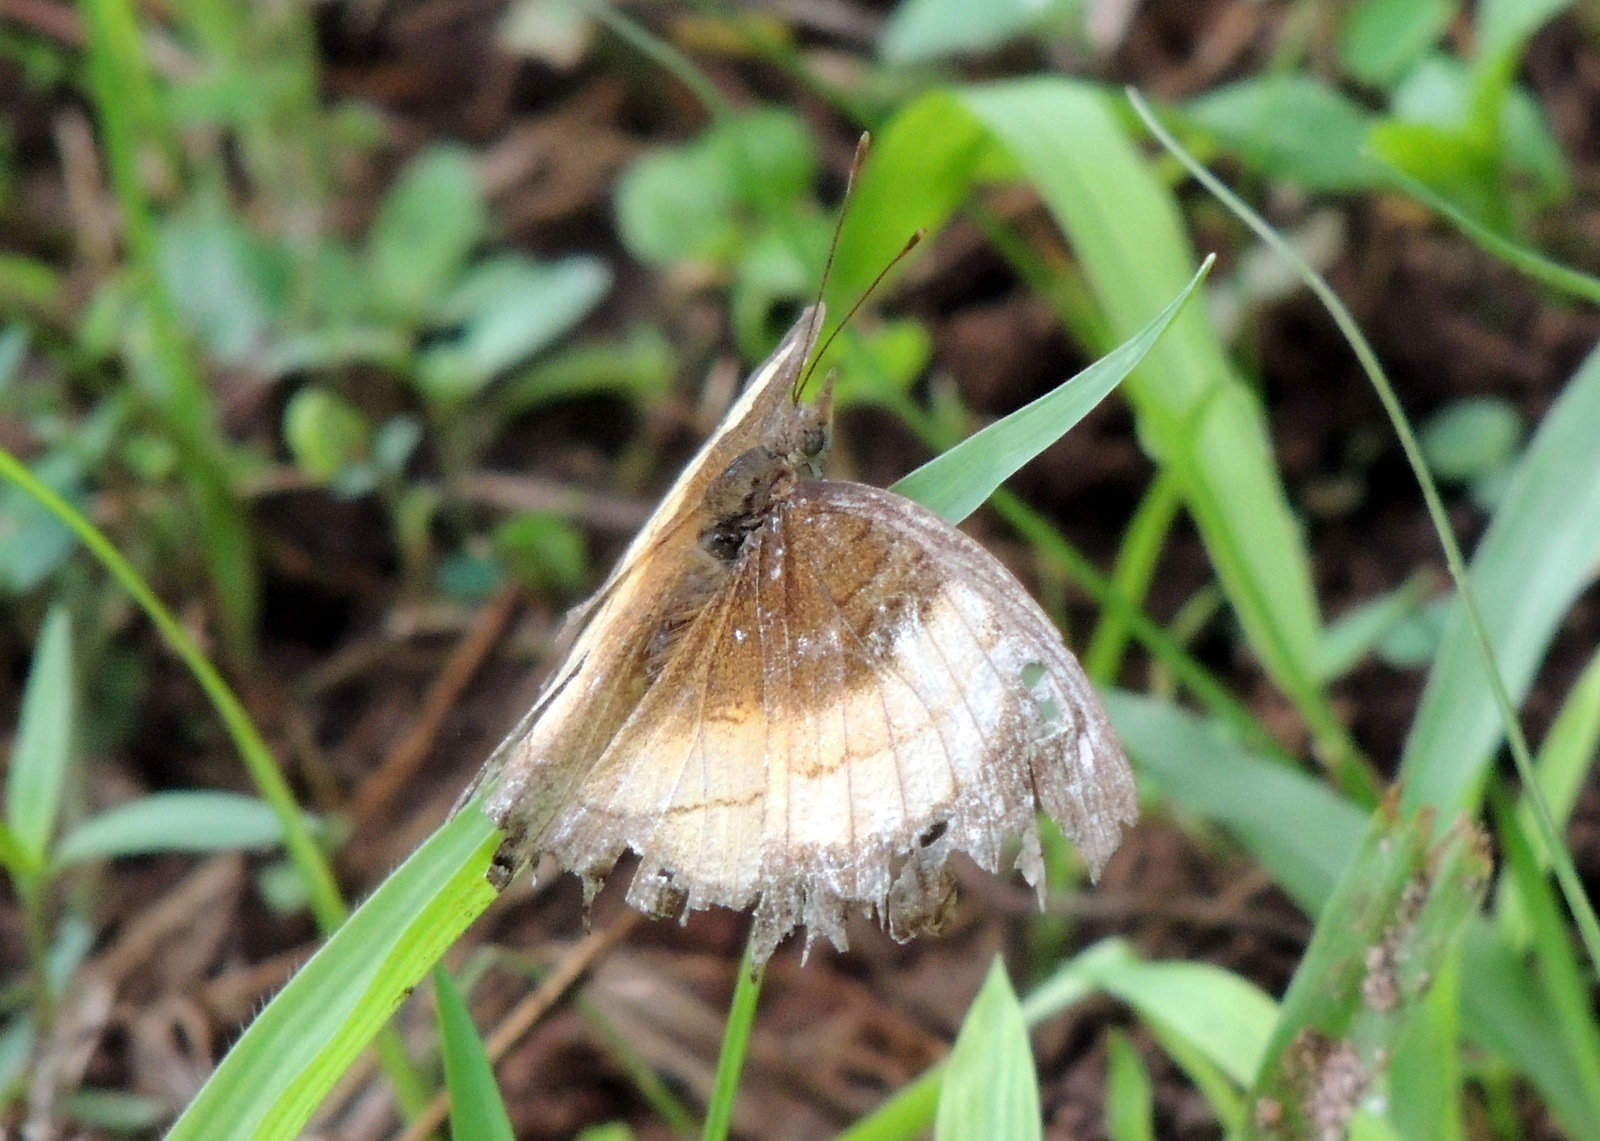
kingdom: Animalia
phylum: Arthropoda
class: Insecta
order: Lepidoptera
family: Nymphalidae
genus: Junonia
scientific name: Junonia terea
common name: Soldier pansy
